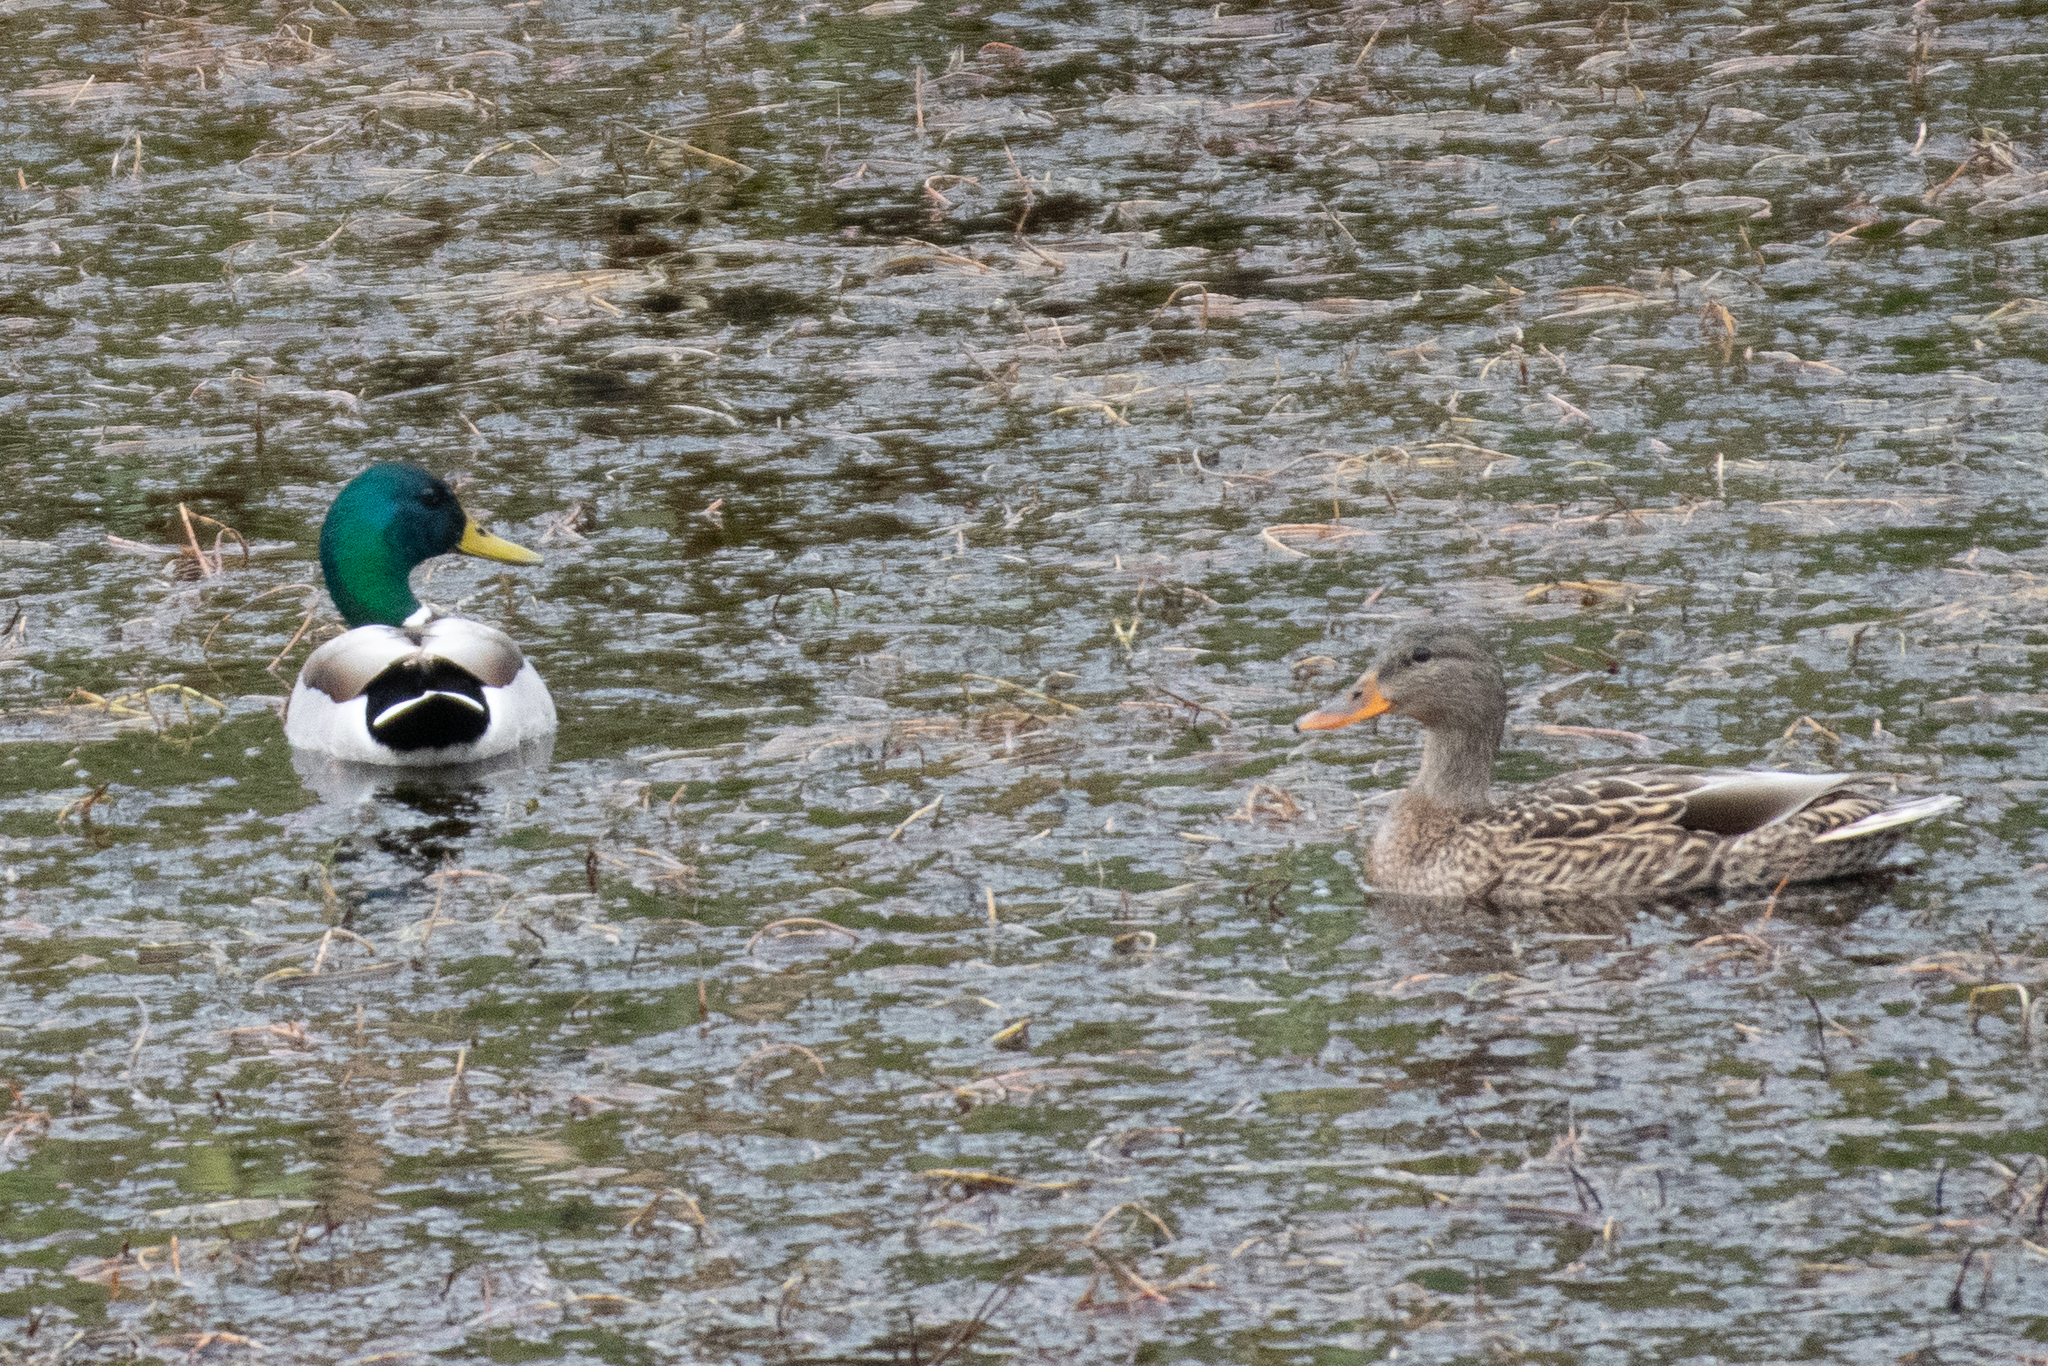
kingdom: Animalia
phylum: Chordata
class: Aves
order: Anseriformes
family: Anatidae
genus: Anas
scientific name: Anas platyrhynchos
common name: Mallard
